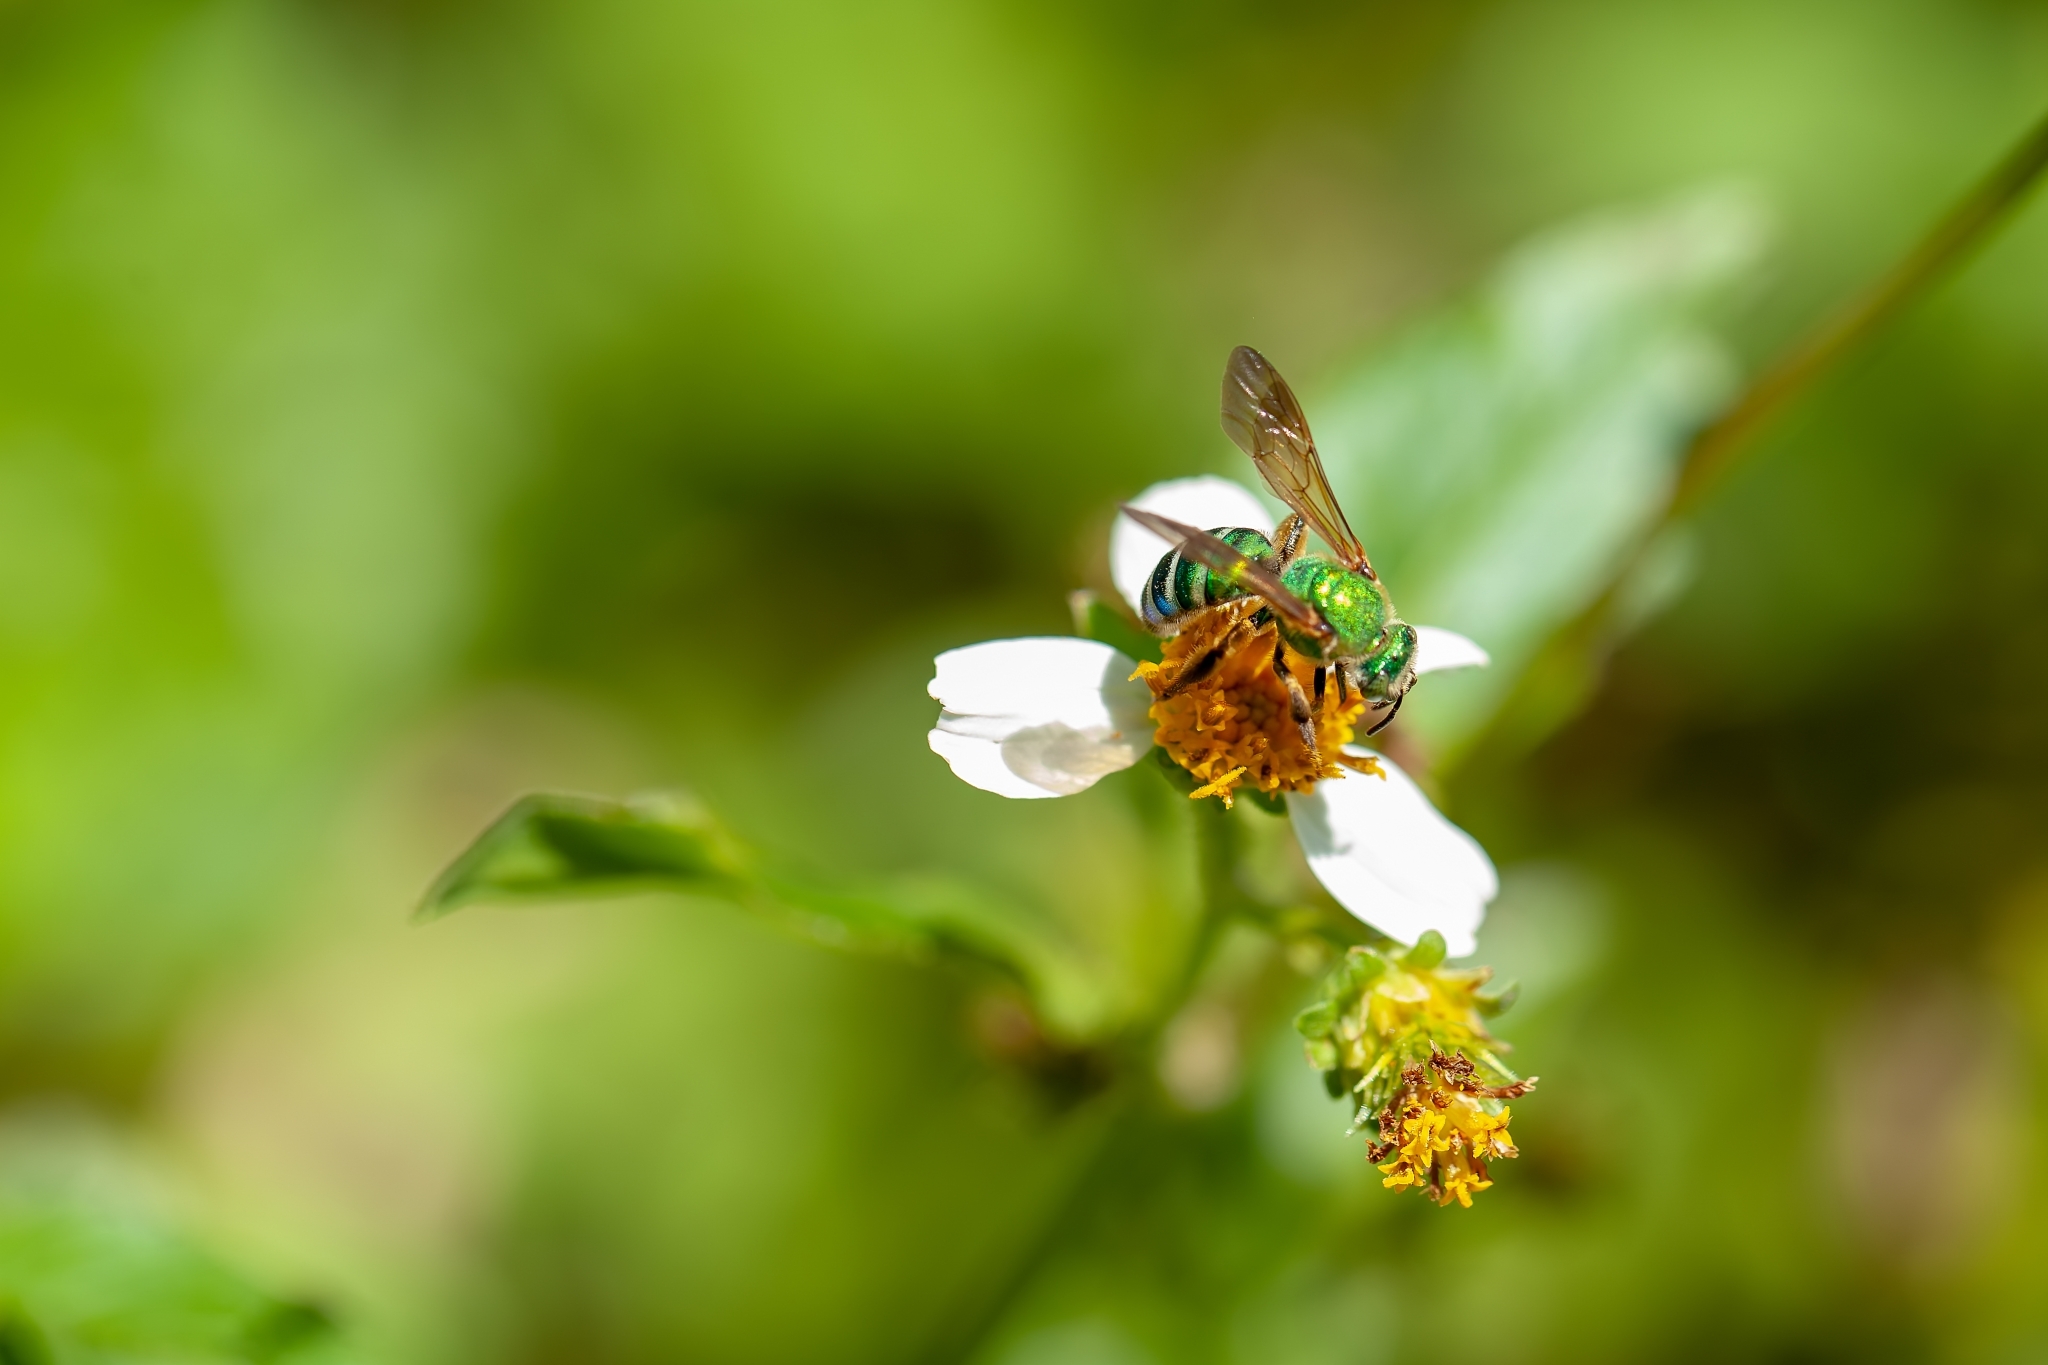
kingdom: Animalia
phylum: Arthropoda
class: Insecta
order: Hymenoptera
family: Halictidae
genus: Agapostemon
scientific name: Agapostemon splendens
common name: Brown-winged striped sweat bee
